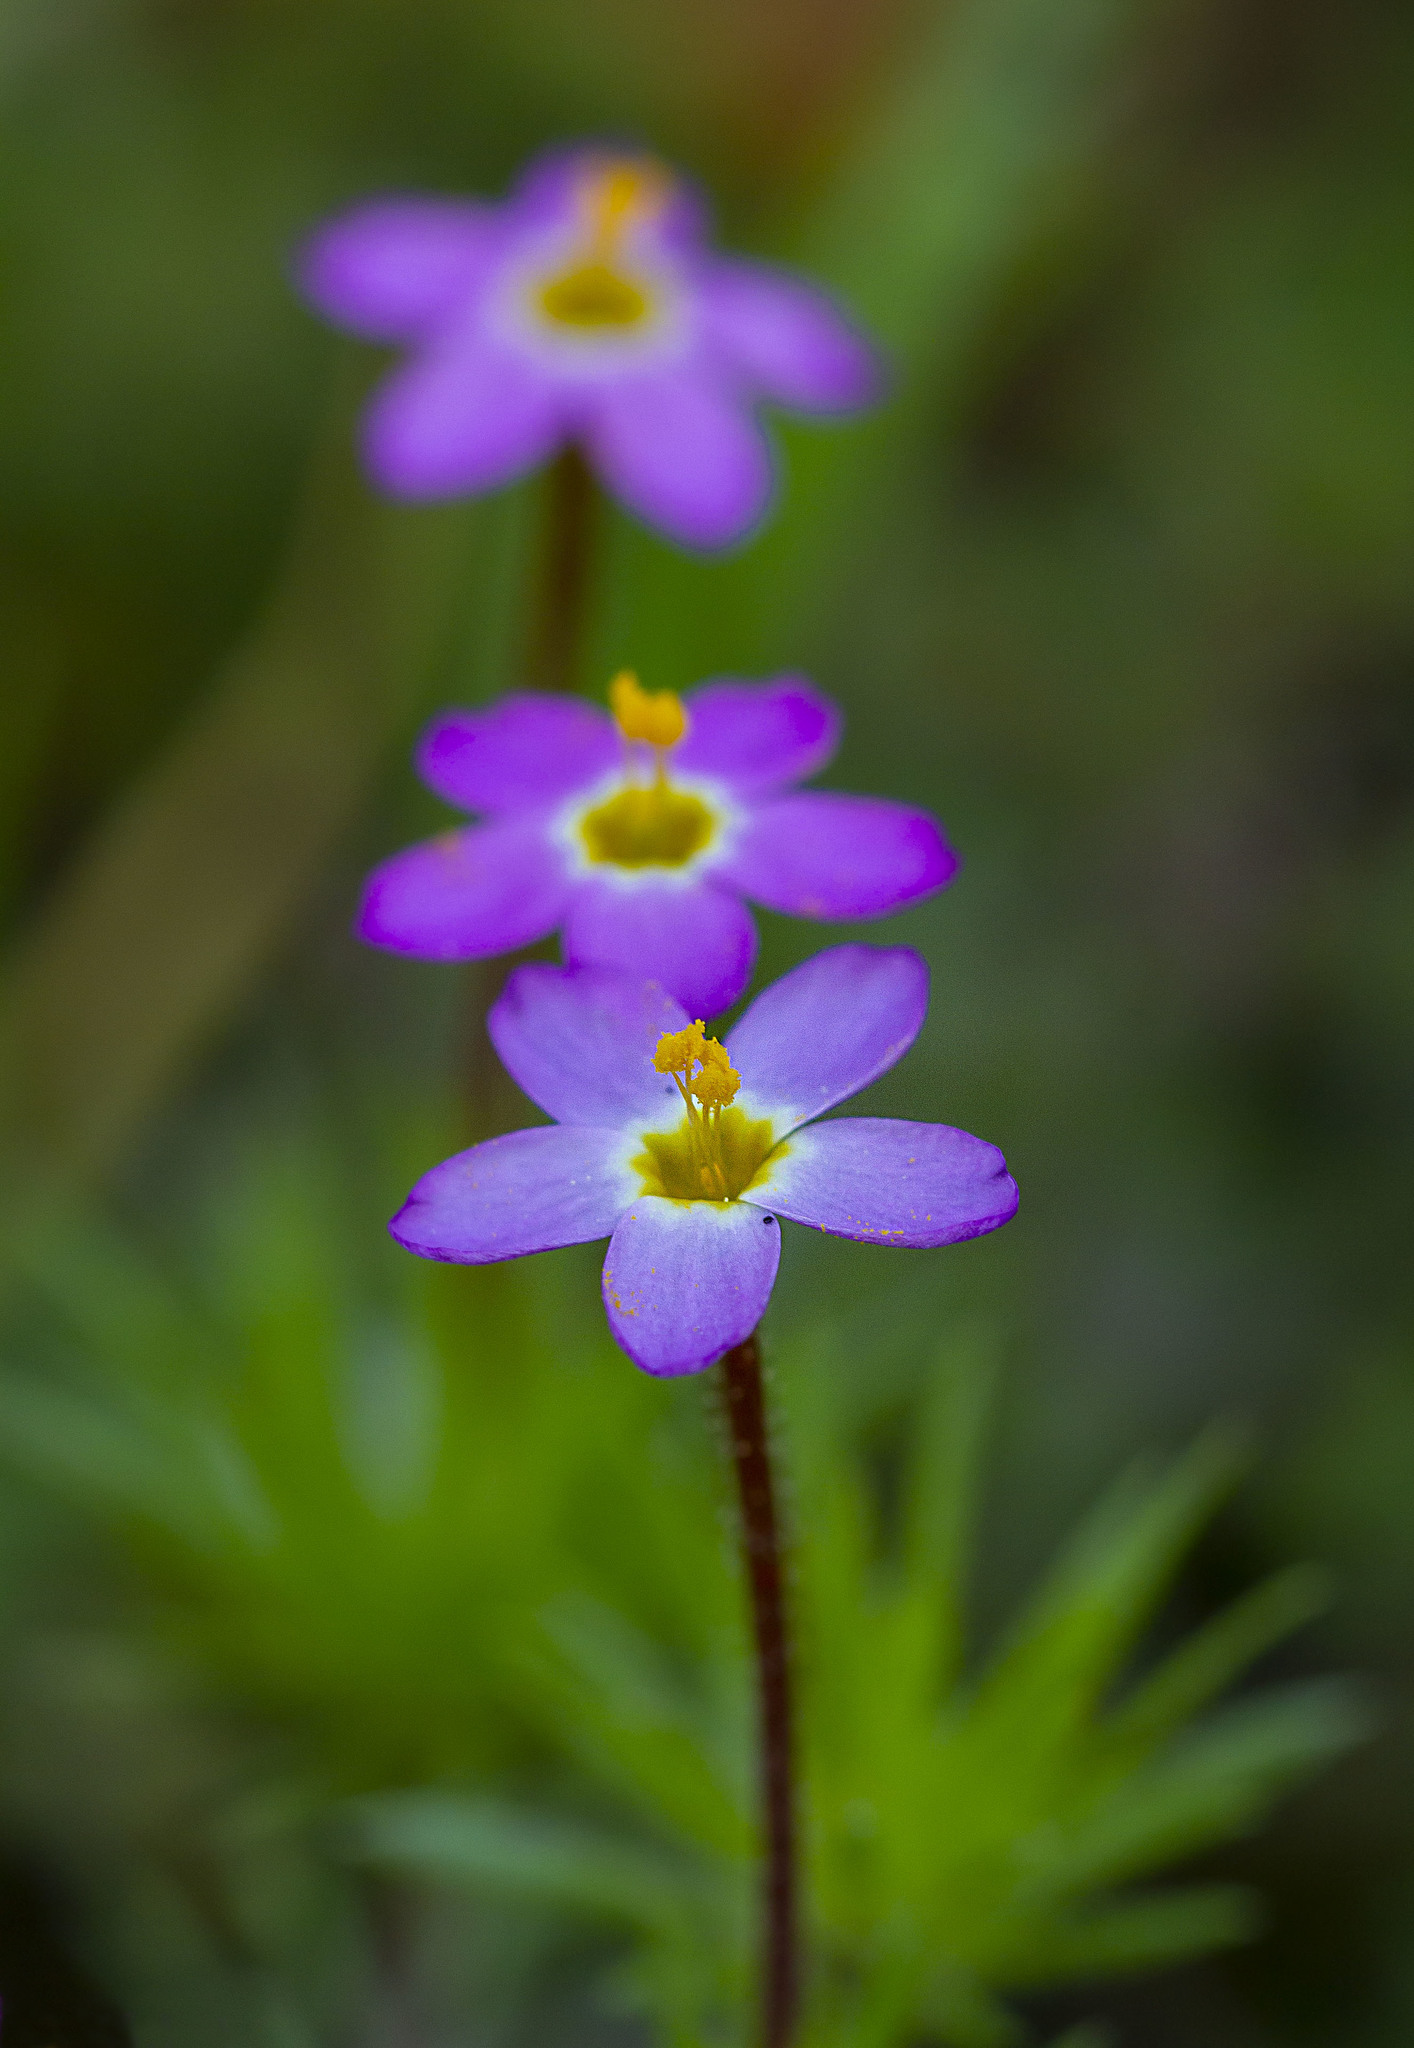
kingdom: Plantae
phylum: Tracheophyta
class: Magnoliopsida
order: Ericales
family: Polemoniaceae
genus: Leptosiphon
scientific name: Leptosiphon bicolor
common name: True babystars
